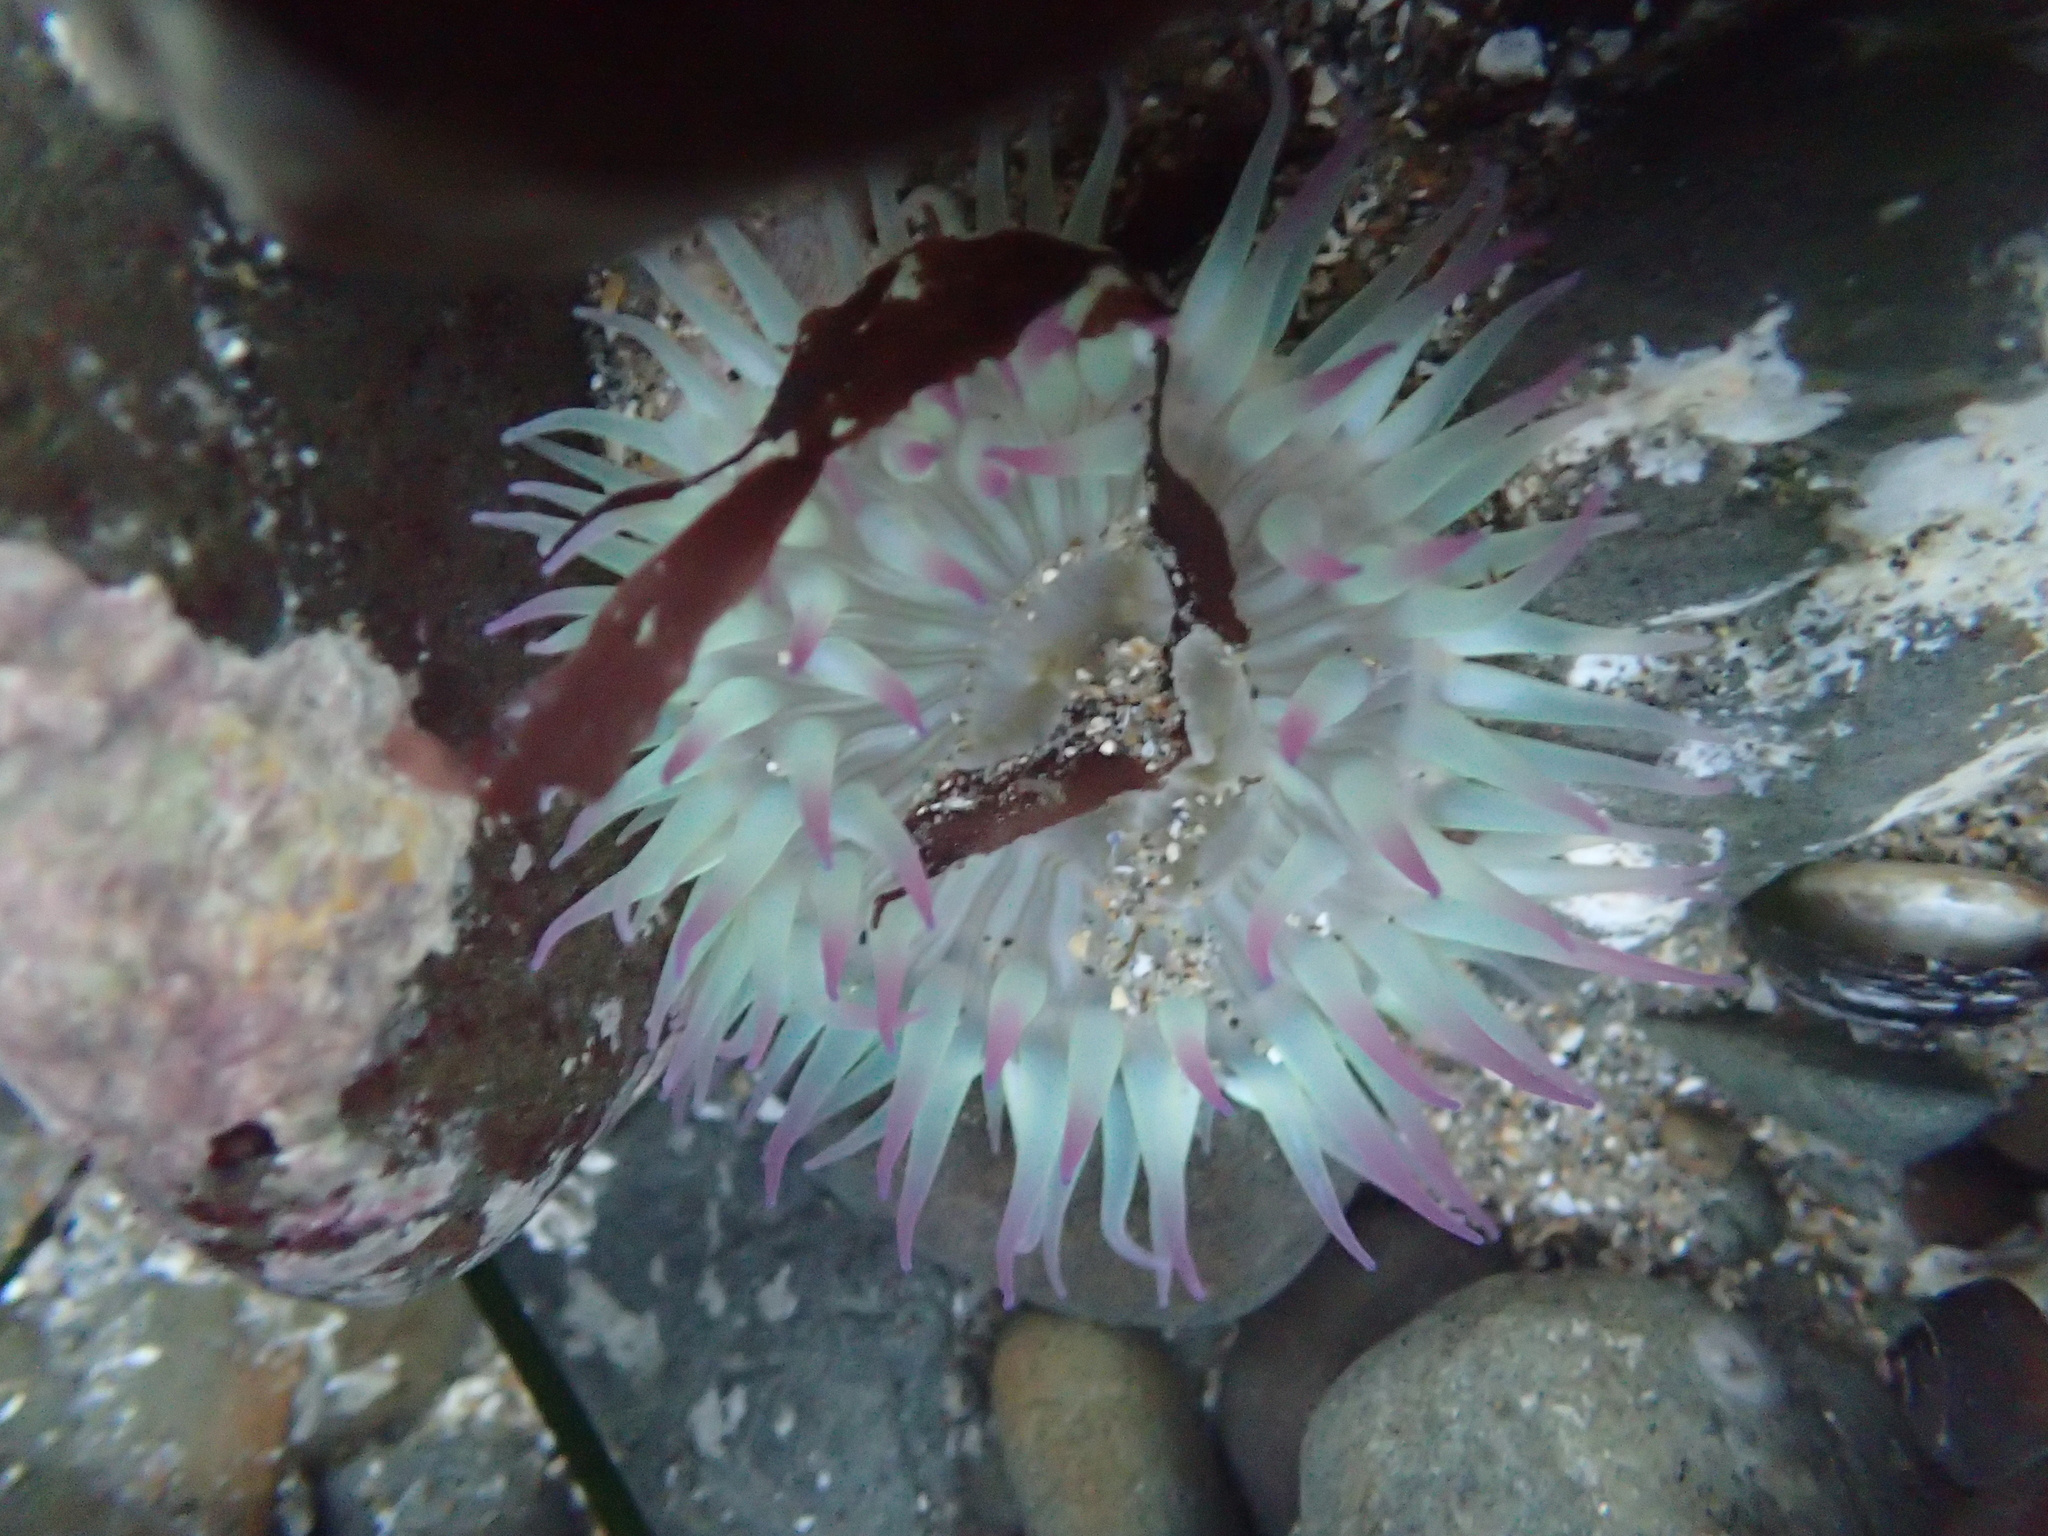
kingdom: Animalia
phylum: Cnidaria
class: Anthozoa
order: Actiniaria
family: Actiniidae
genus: Anthopleura
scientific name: Anthopleura sola
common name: Sun anemone
